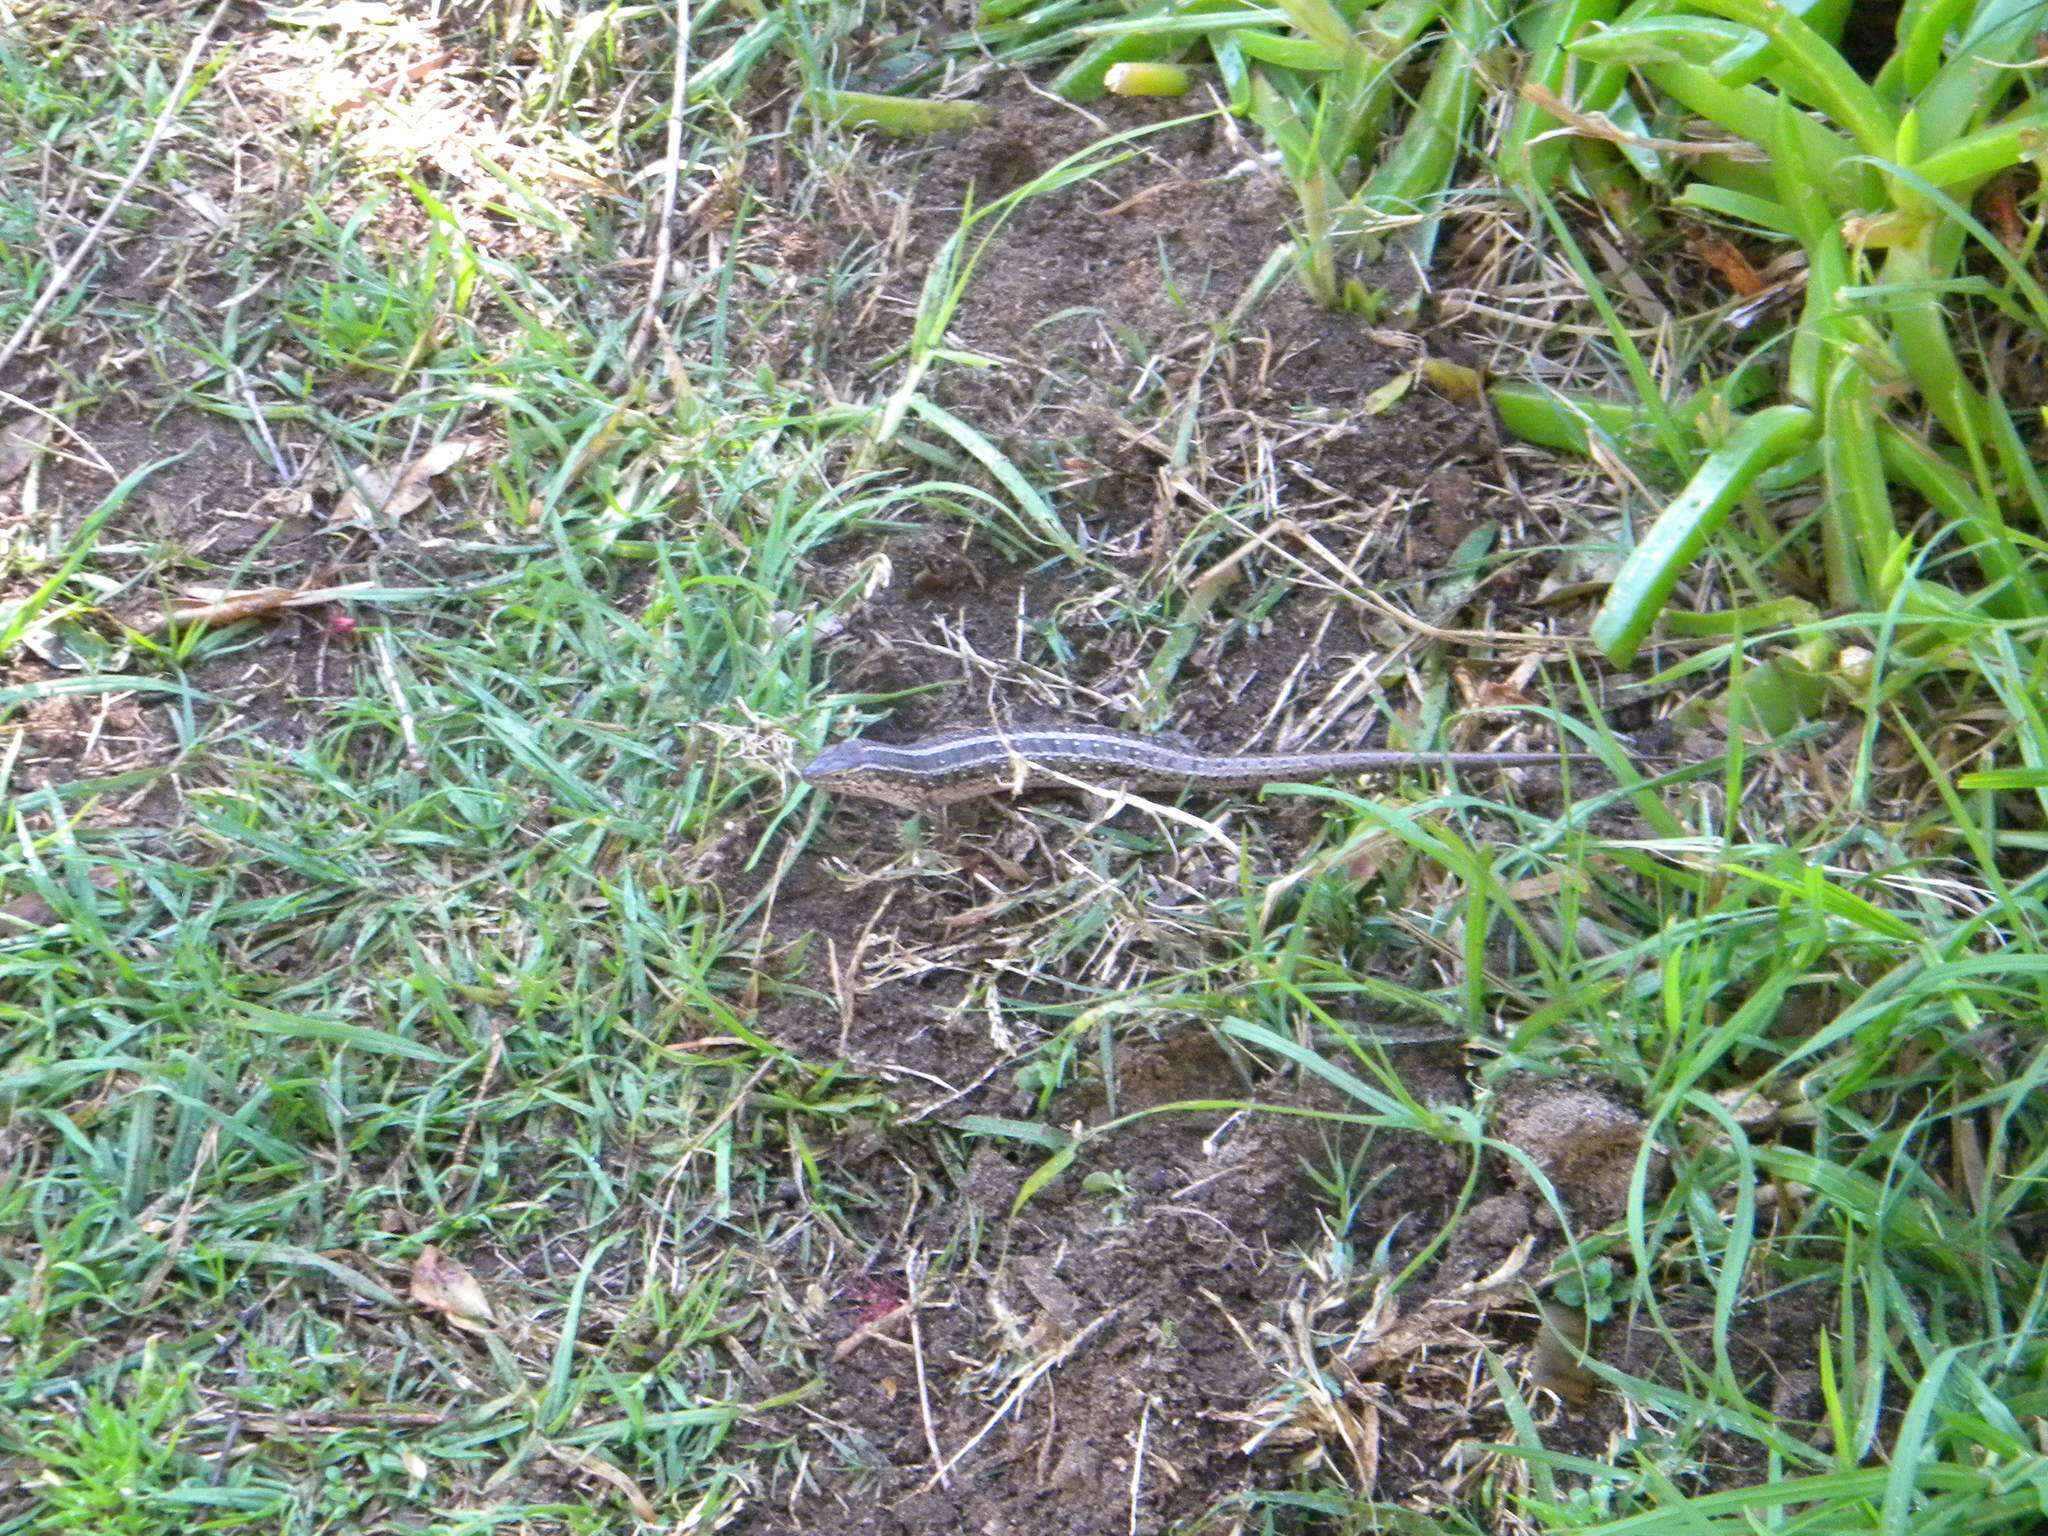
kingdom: Animalia
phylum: Chordata
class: Squamata
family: Scincidae
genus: Trachylepis
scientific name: Trachylepis capensis
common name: Cape skink
